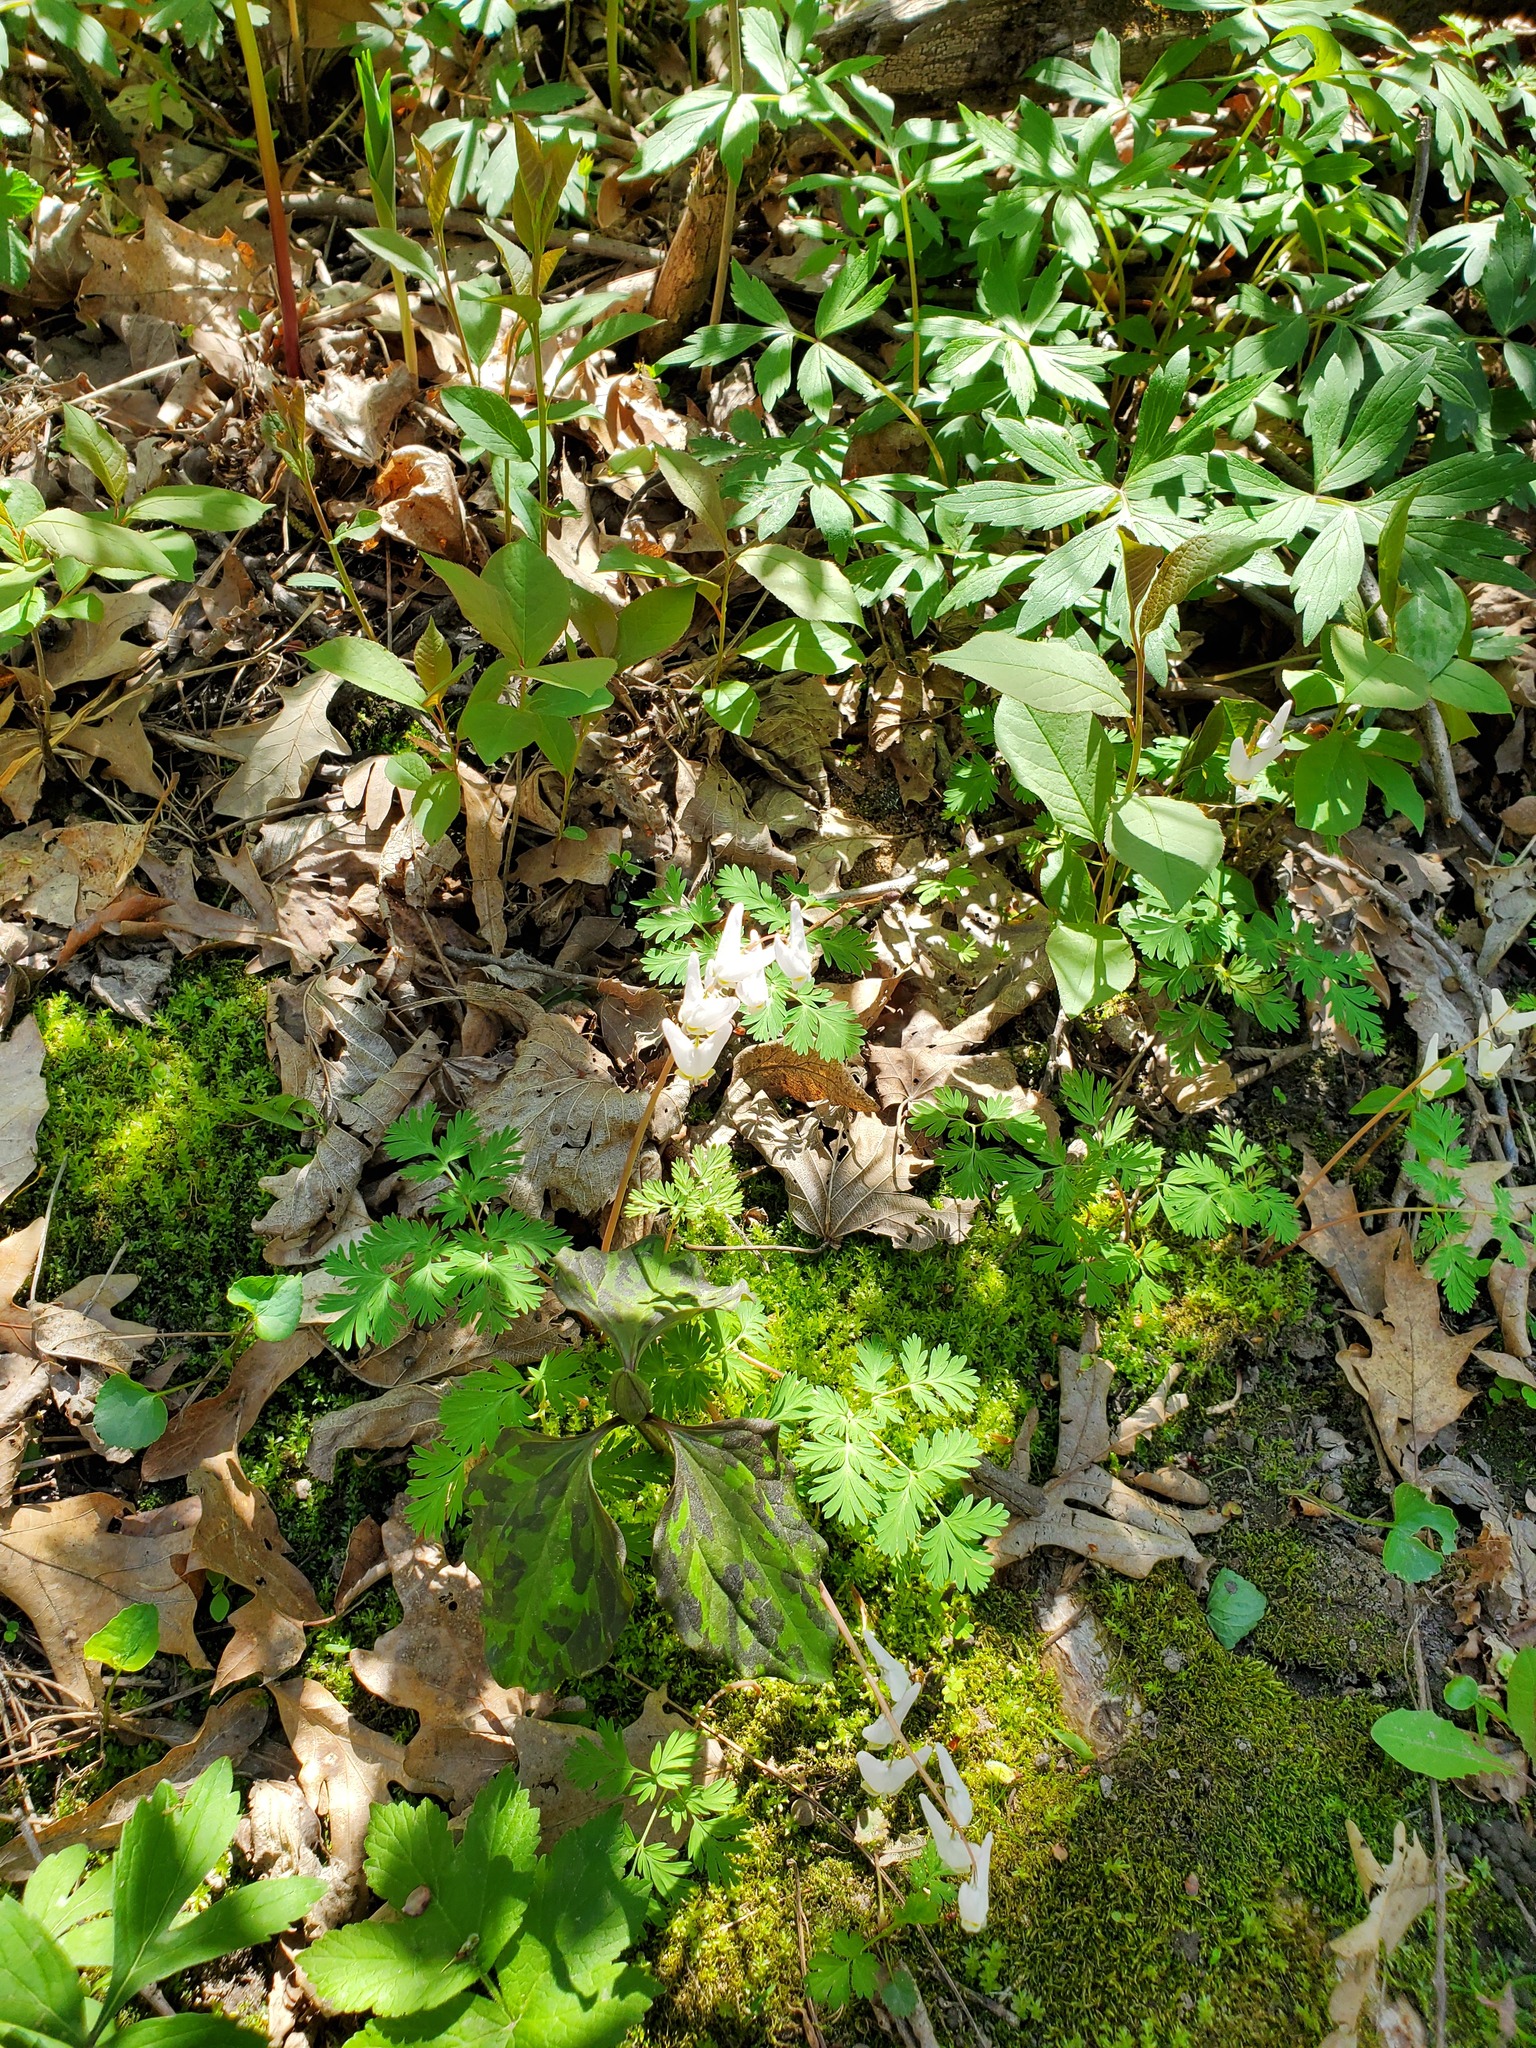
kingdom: Plantae
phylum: Tracheophyta
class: Magnoliopsida
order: Ranunculales
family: Papaveraceae
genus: Dicentra
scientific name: Dicentra cucullaria
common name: Dutchman's breeches
